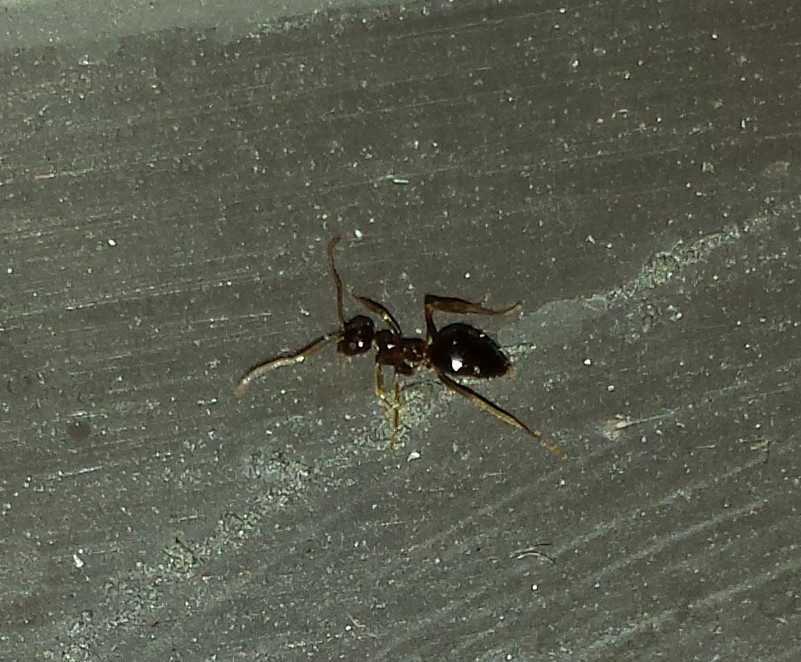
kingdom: Animalia
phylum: Arthropoda
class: Insecta
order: Hymenoptera
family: Formicidae
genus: Prenolepis
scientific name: Prenolepis imparis
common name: Small honey ant
